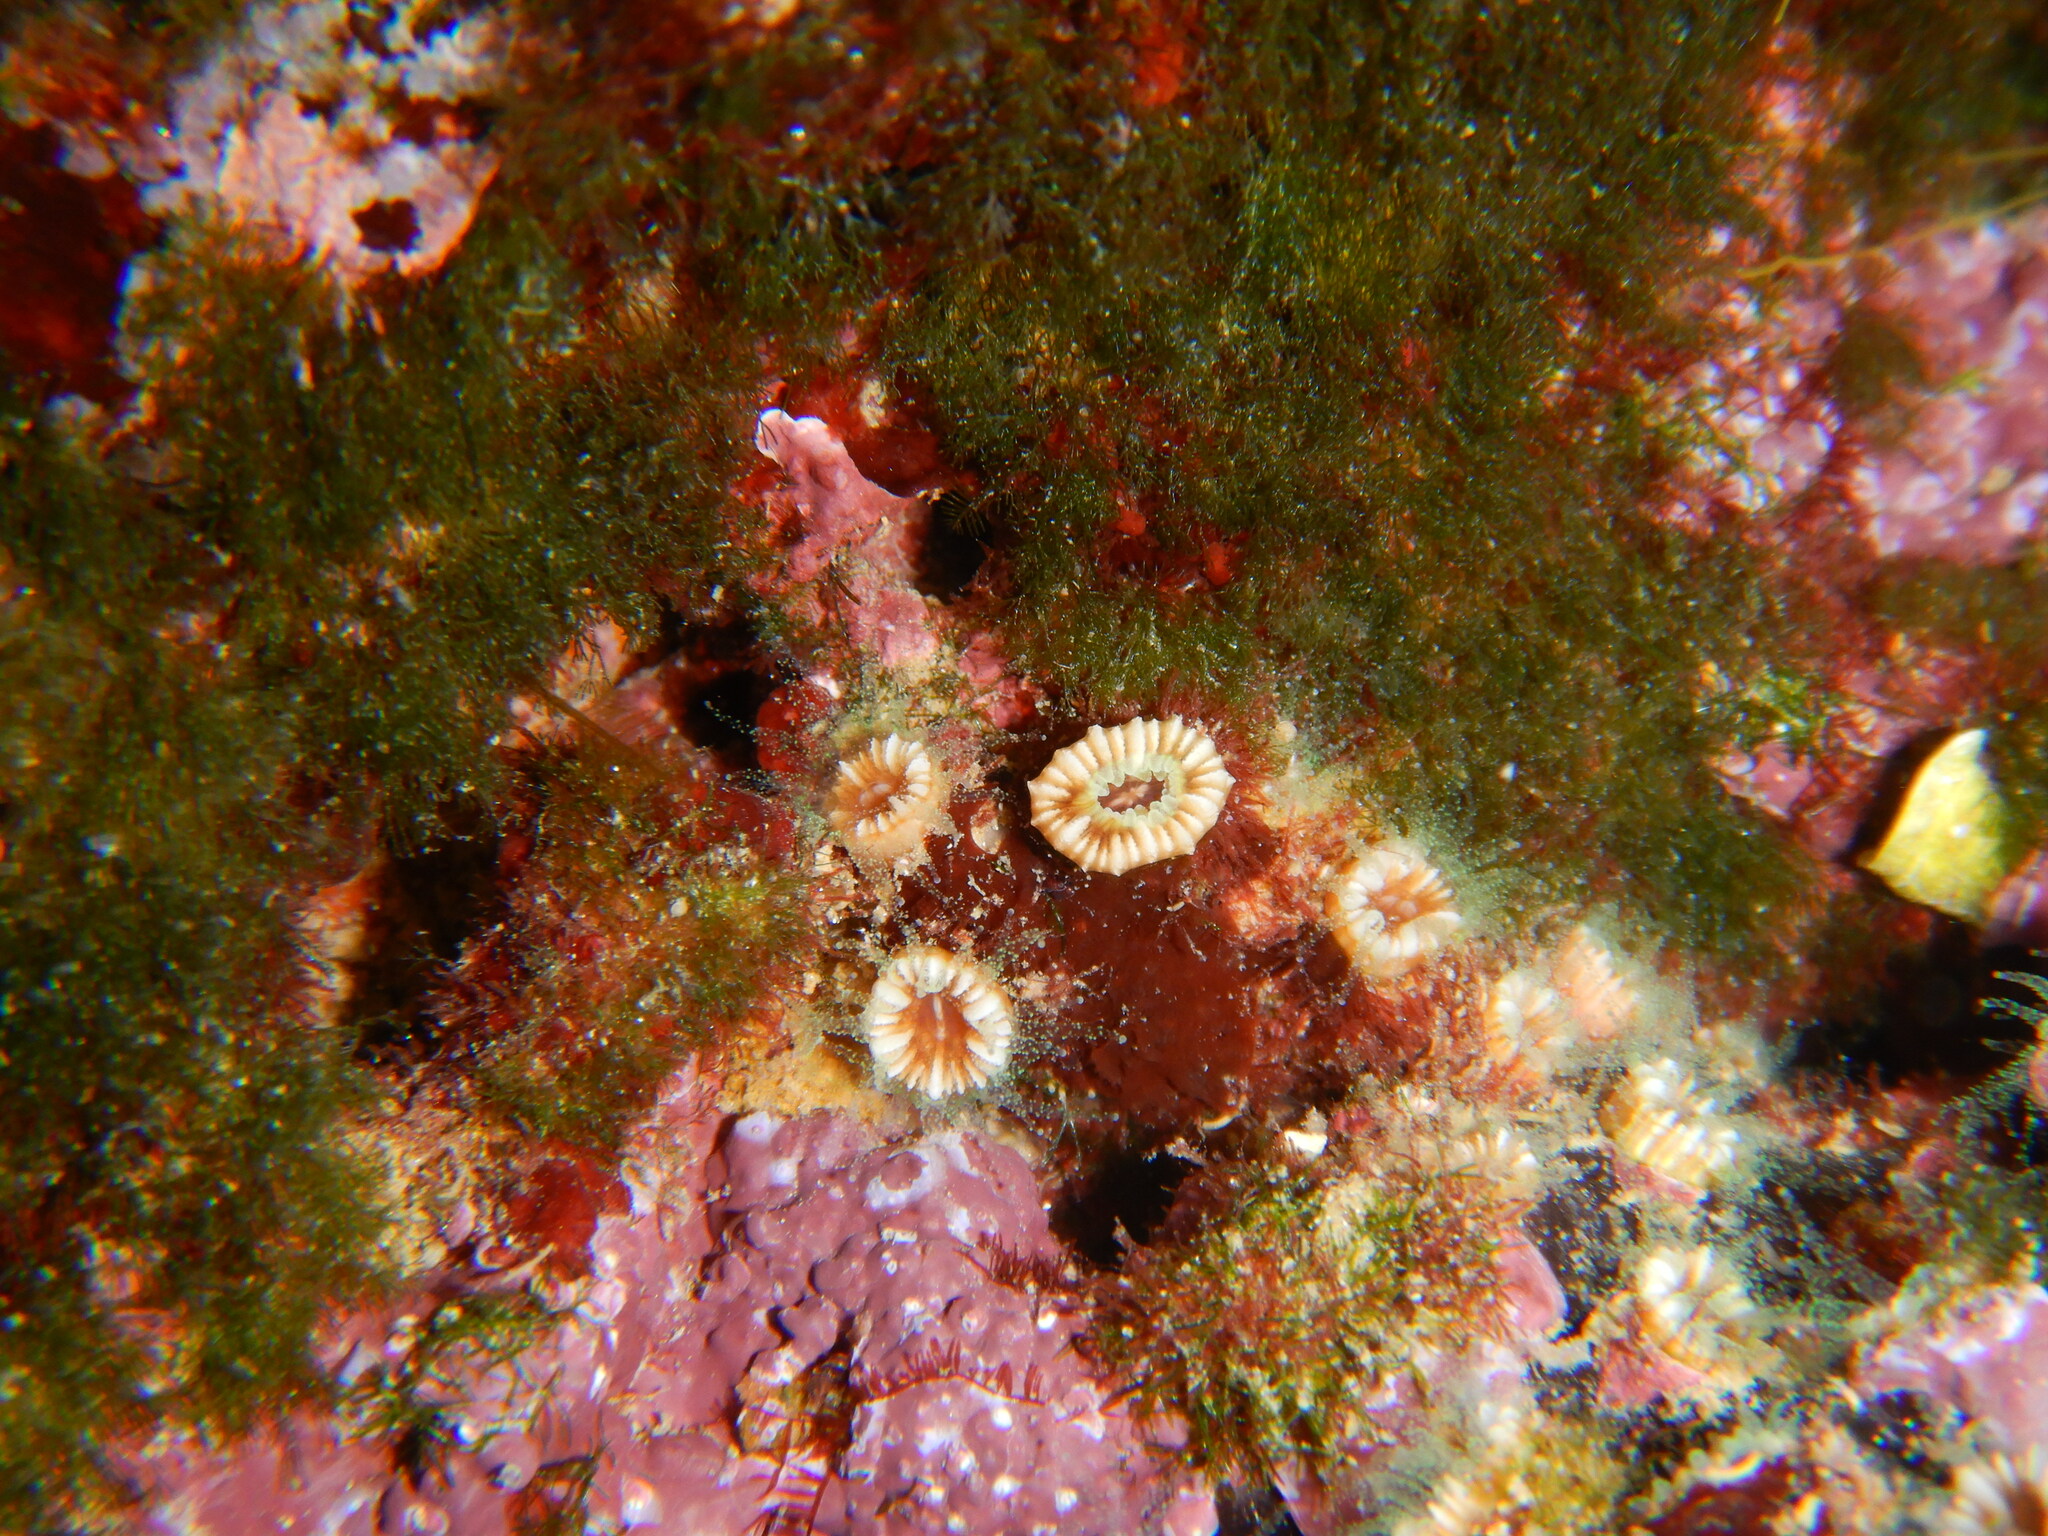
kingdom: Animalia
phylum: Cnidaria
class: Anthozoa
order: Scleractinia
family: Caryophylliidae
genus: Polycyathus
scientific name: Polycyathus muellerae
